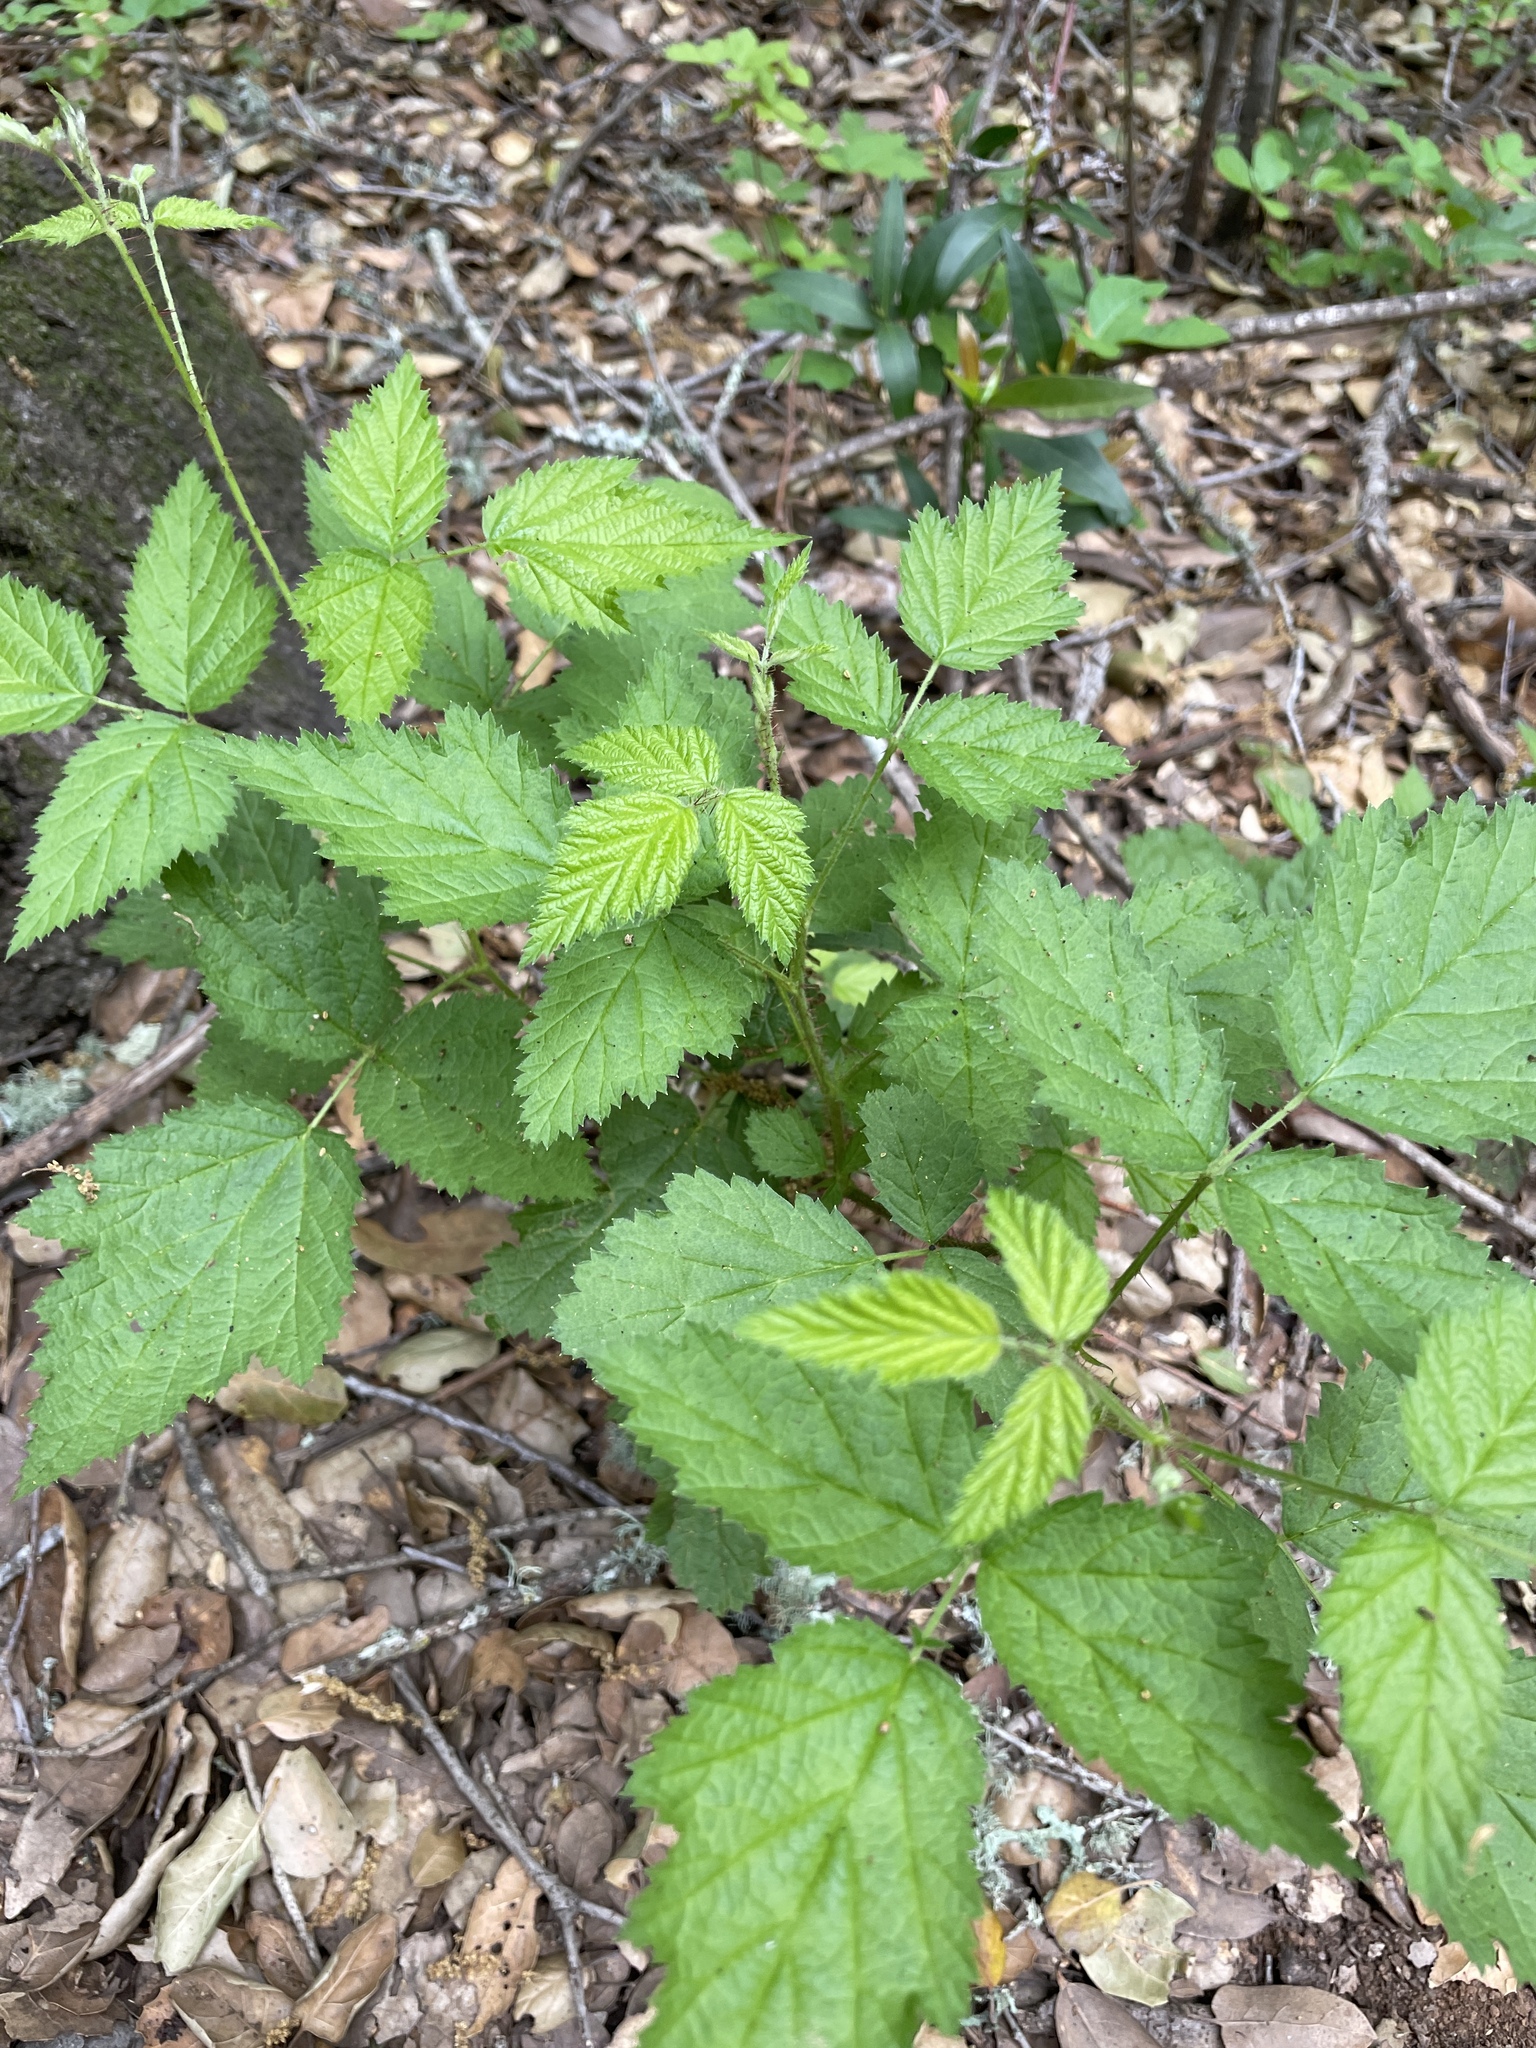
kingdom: Plantae
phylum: Tracheophyta
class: Magnoliopsida
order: Rosales
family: Rosaceae
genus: Rubus
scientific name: Rubus ursinus
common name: Pacific blackberry
